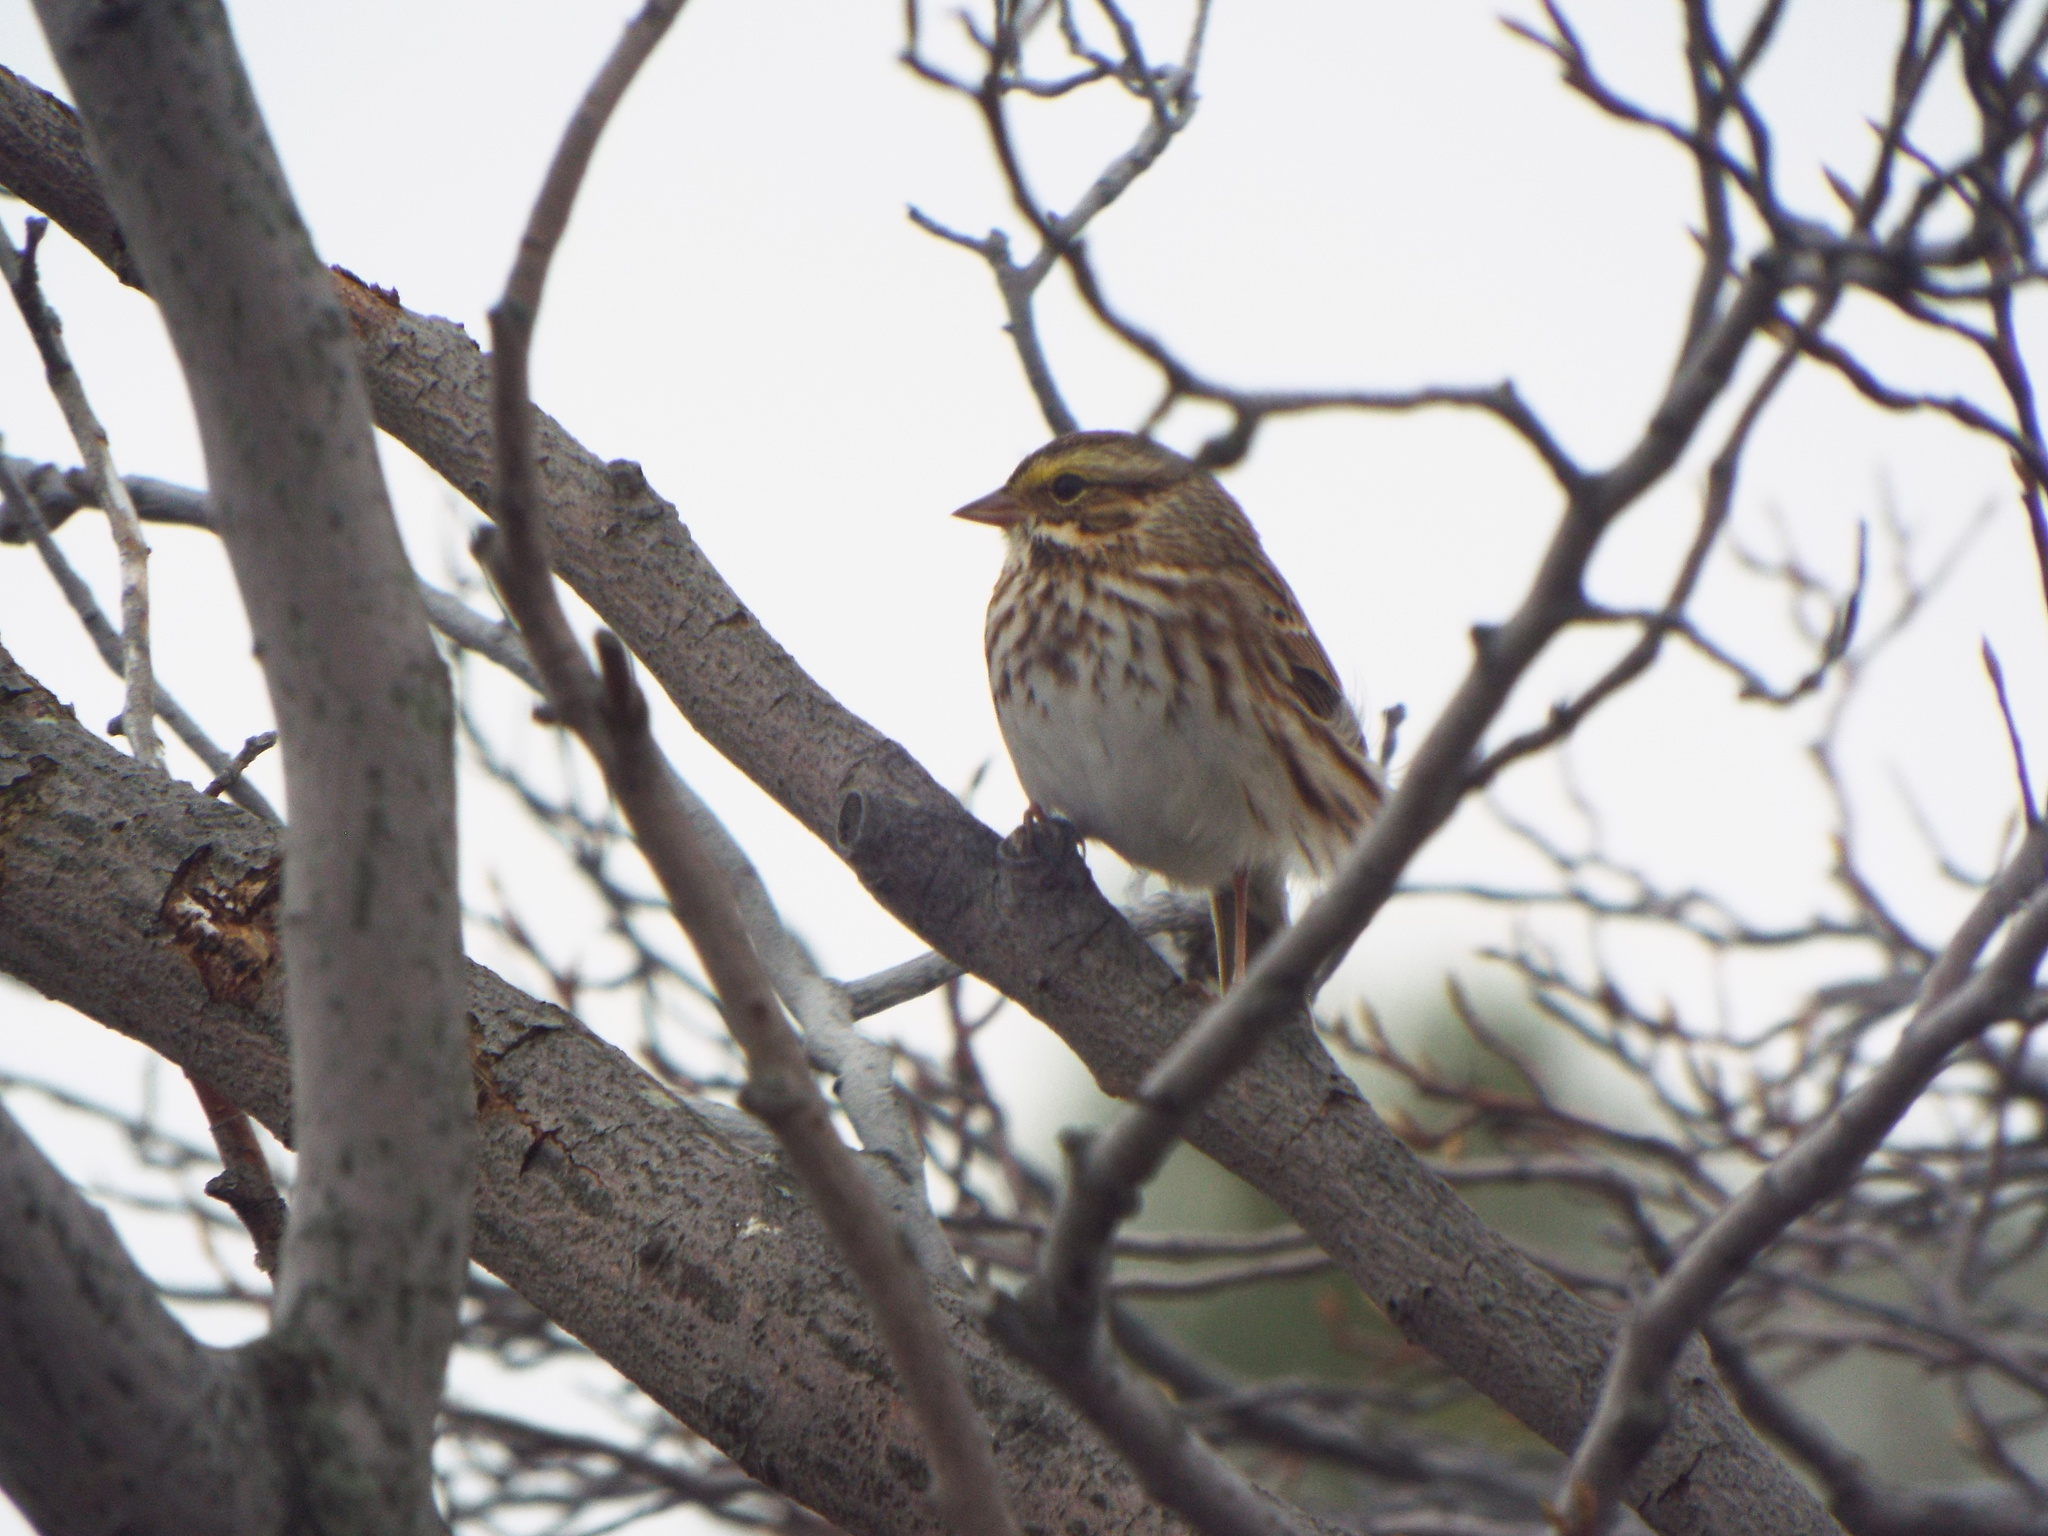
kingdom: Animalia
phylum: Chordata
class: Aves
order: Passeriformes
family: Passerellidae
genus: Passerculus
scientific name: Passerculus sandwichensis
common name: Savannah sparrow
